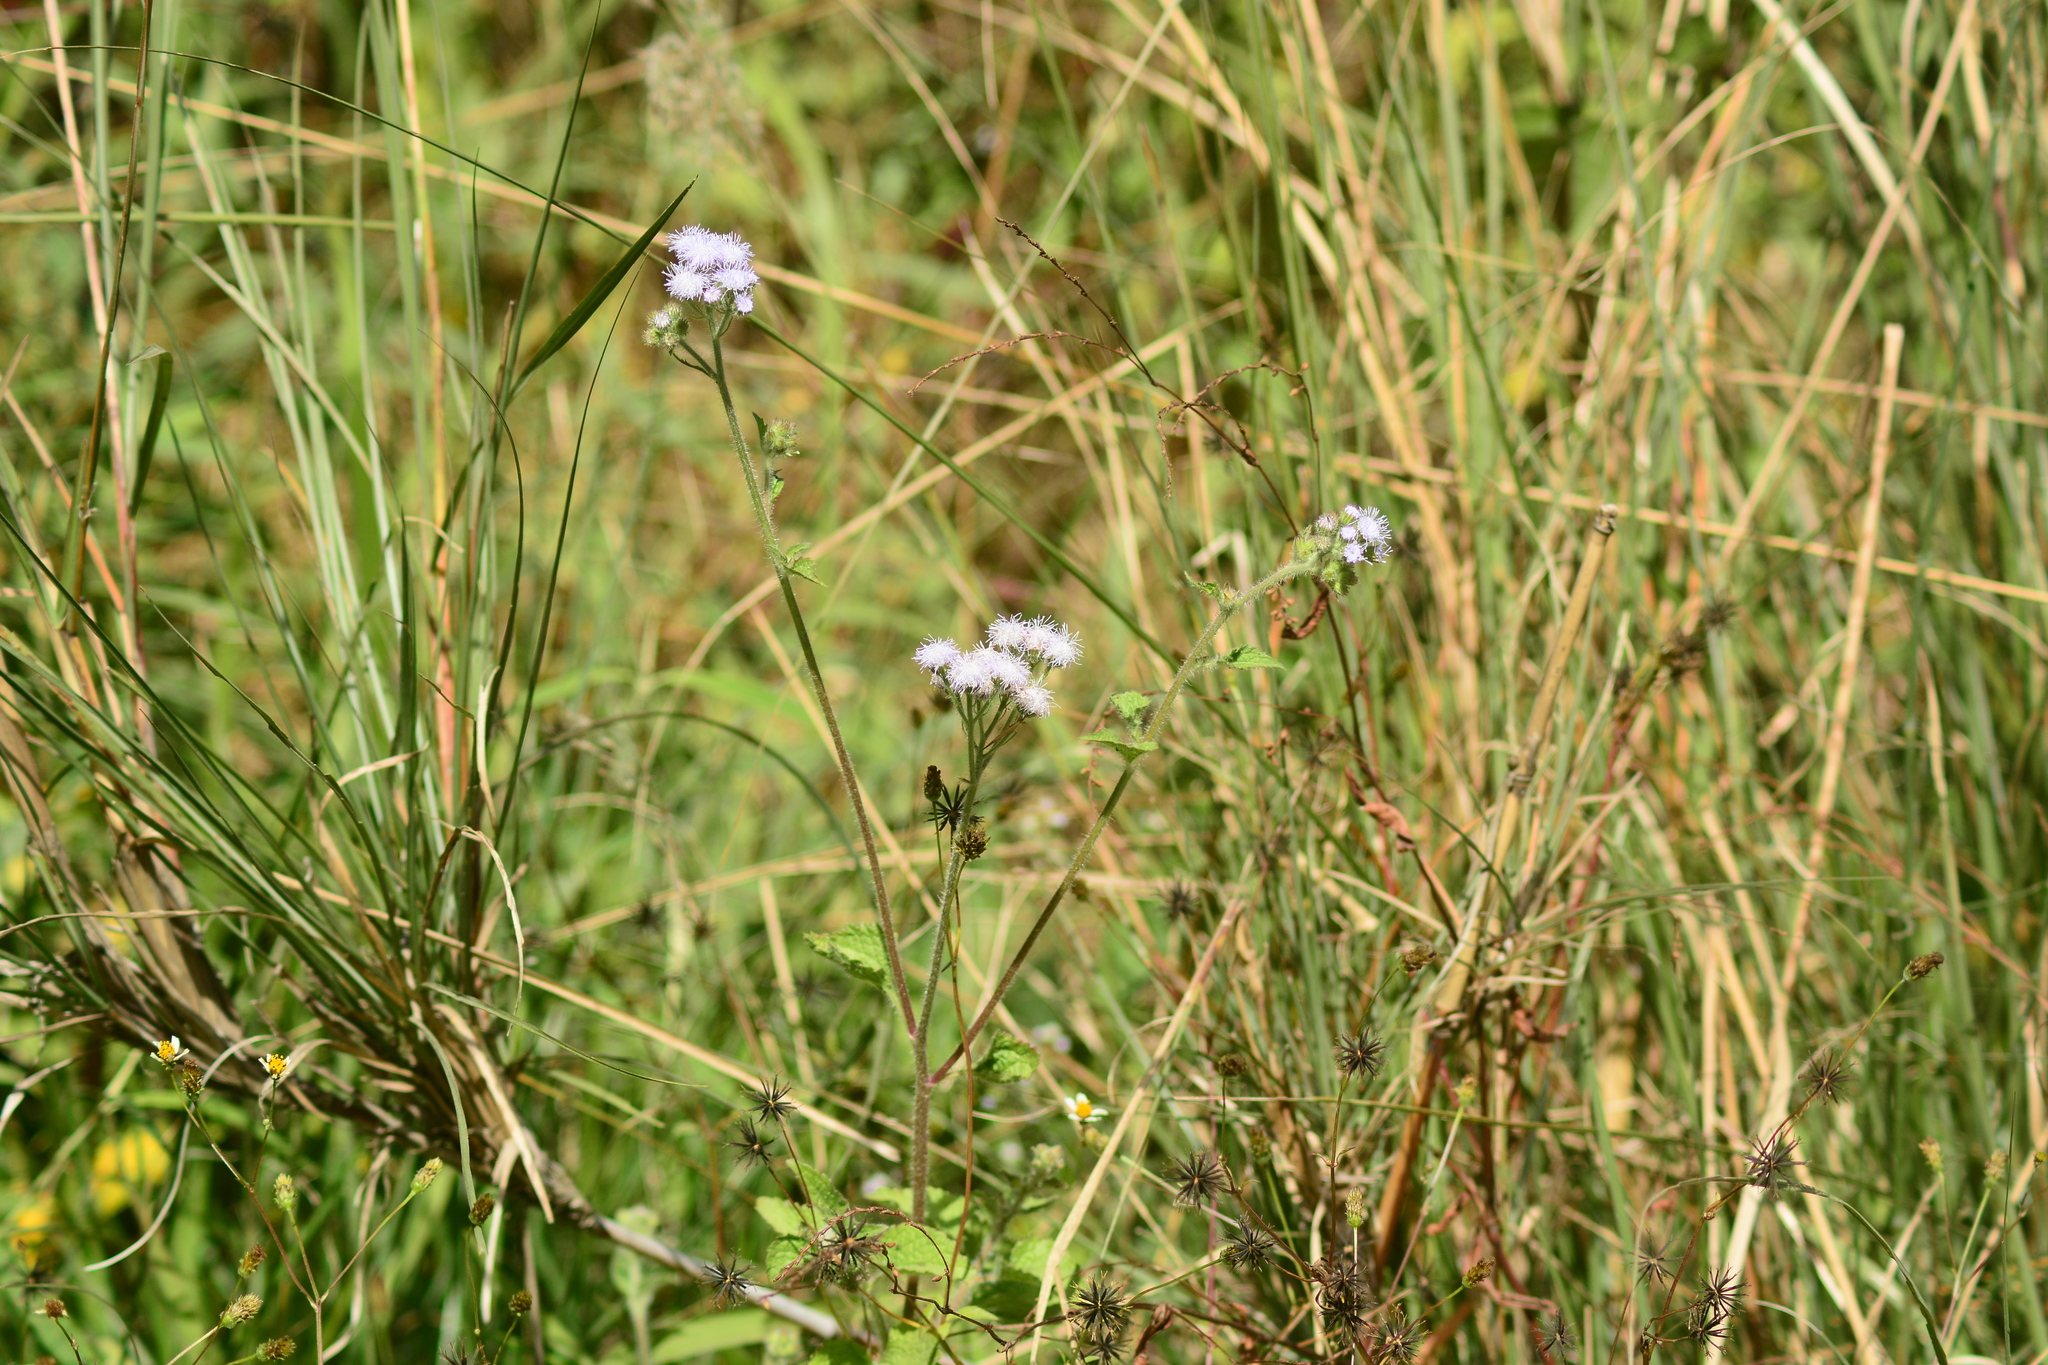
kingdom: Plantae
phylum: Tracheophyta
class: Magnoliopsida
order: Asterales
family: Asteraceae
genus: Ageratum
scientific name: Ageratum houstonianum
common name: Bluemink
